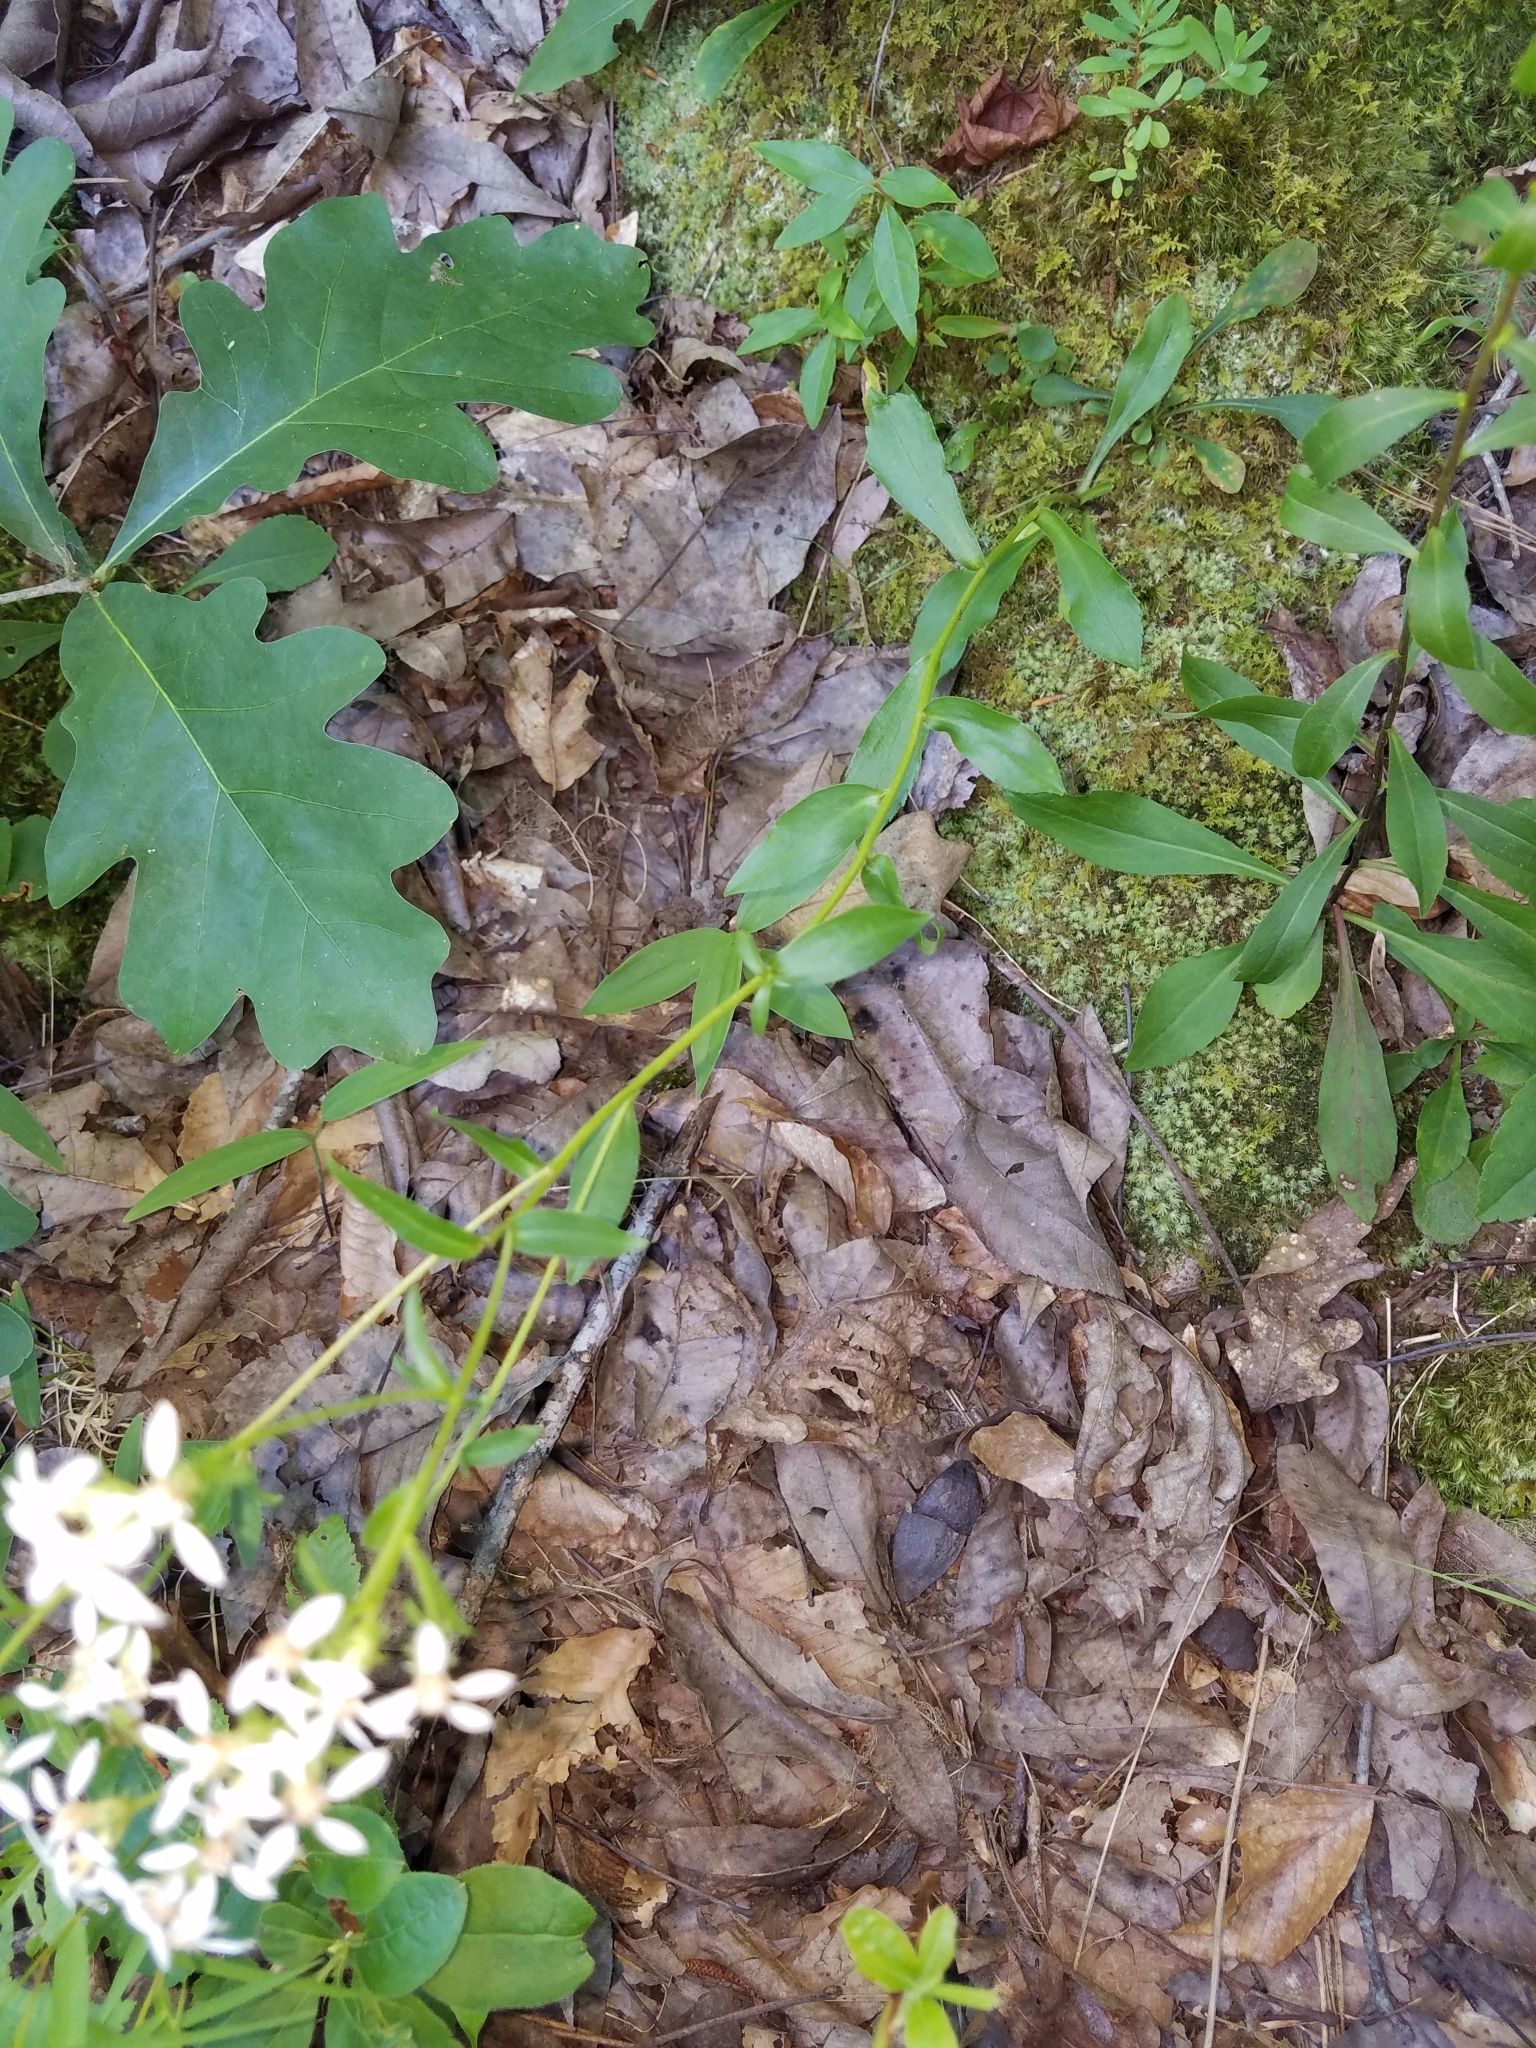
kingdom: Plantae
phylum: Tracheophyta
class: Magnoliopsida
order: Asterales
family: Asteraceae
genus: Sericocarpus
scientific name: Sericocarpus asteroides
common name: Toothed white-top aster
